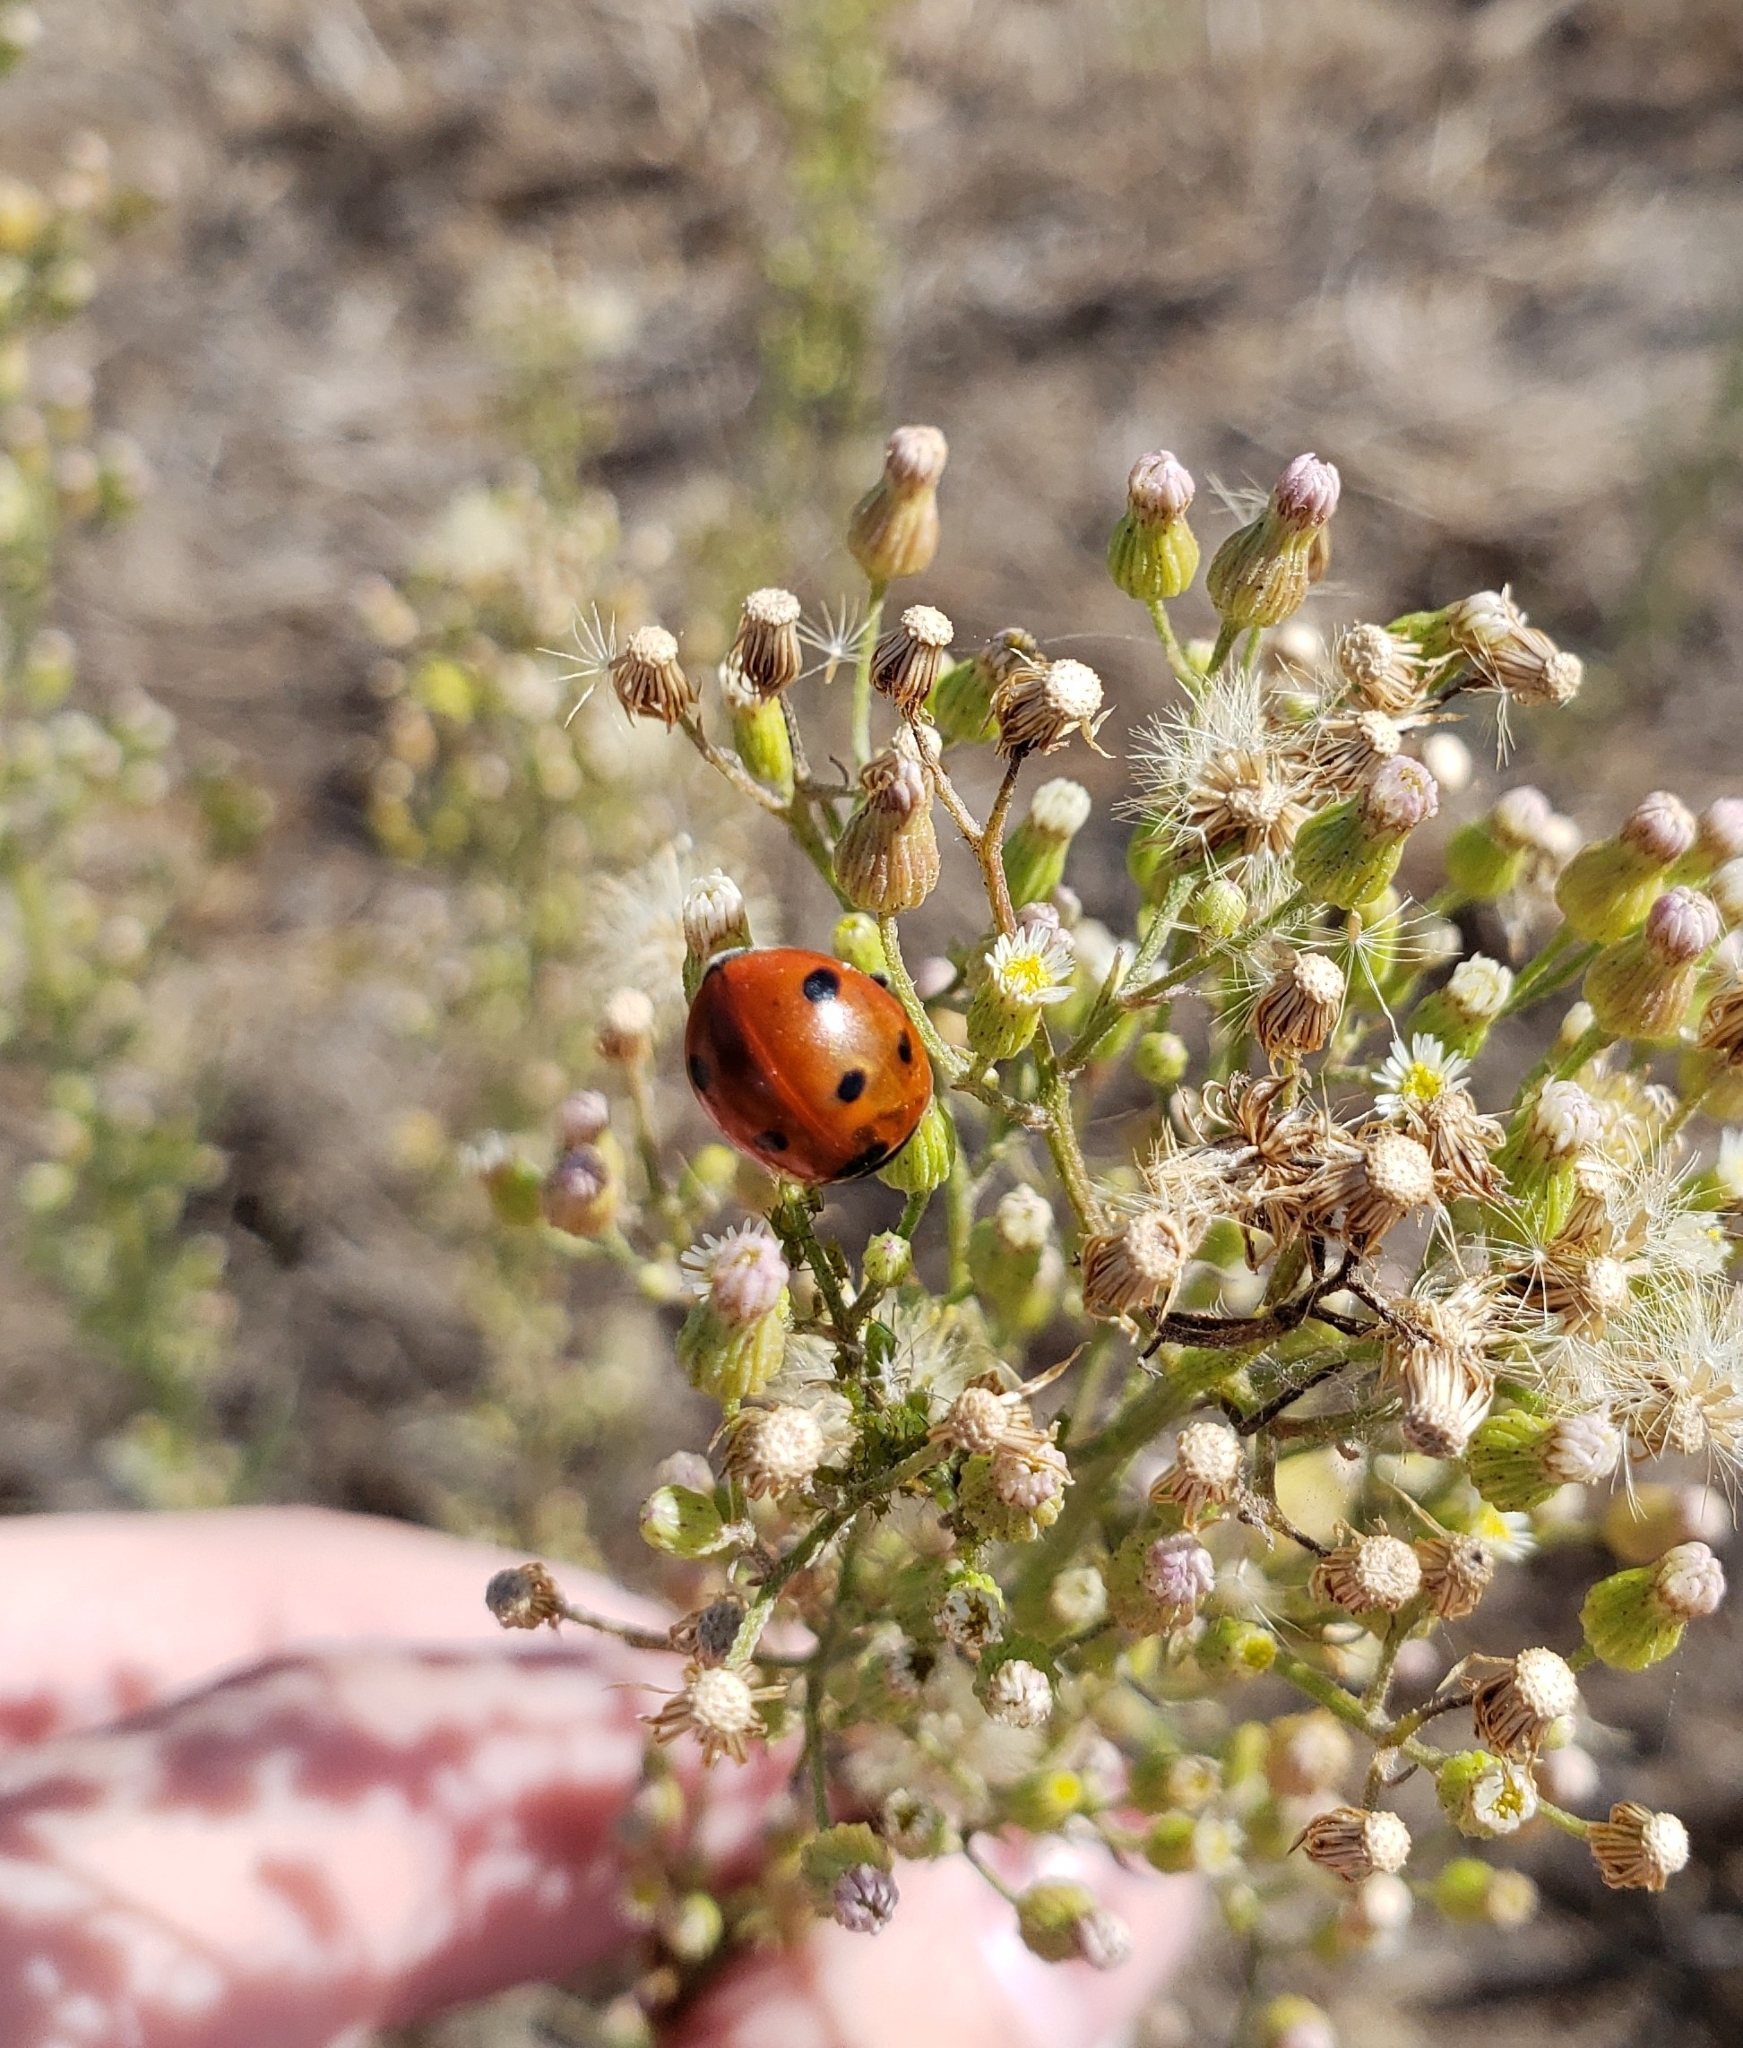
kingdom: Animalia
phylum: Arthropoda
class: Insecta
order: Coleoptera
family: Coccinellidae
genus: Coccinella
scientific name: Coccinella septempunctata
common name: Sevenspotted lady beetle
